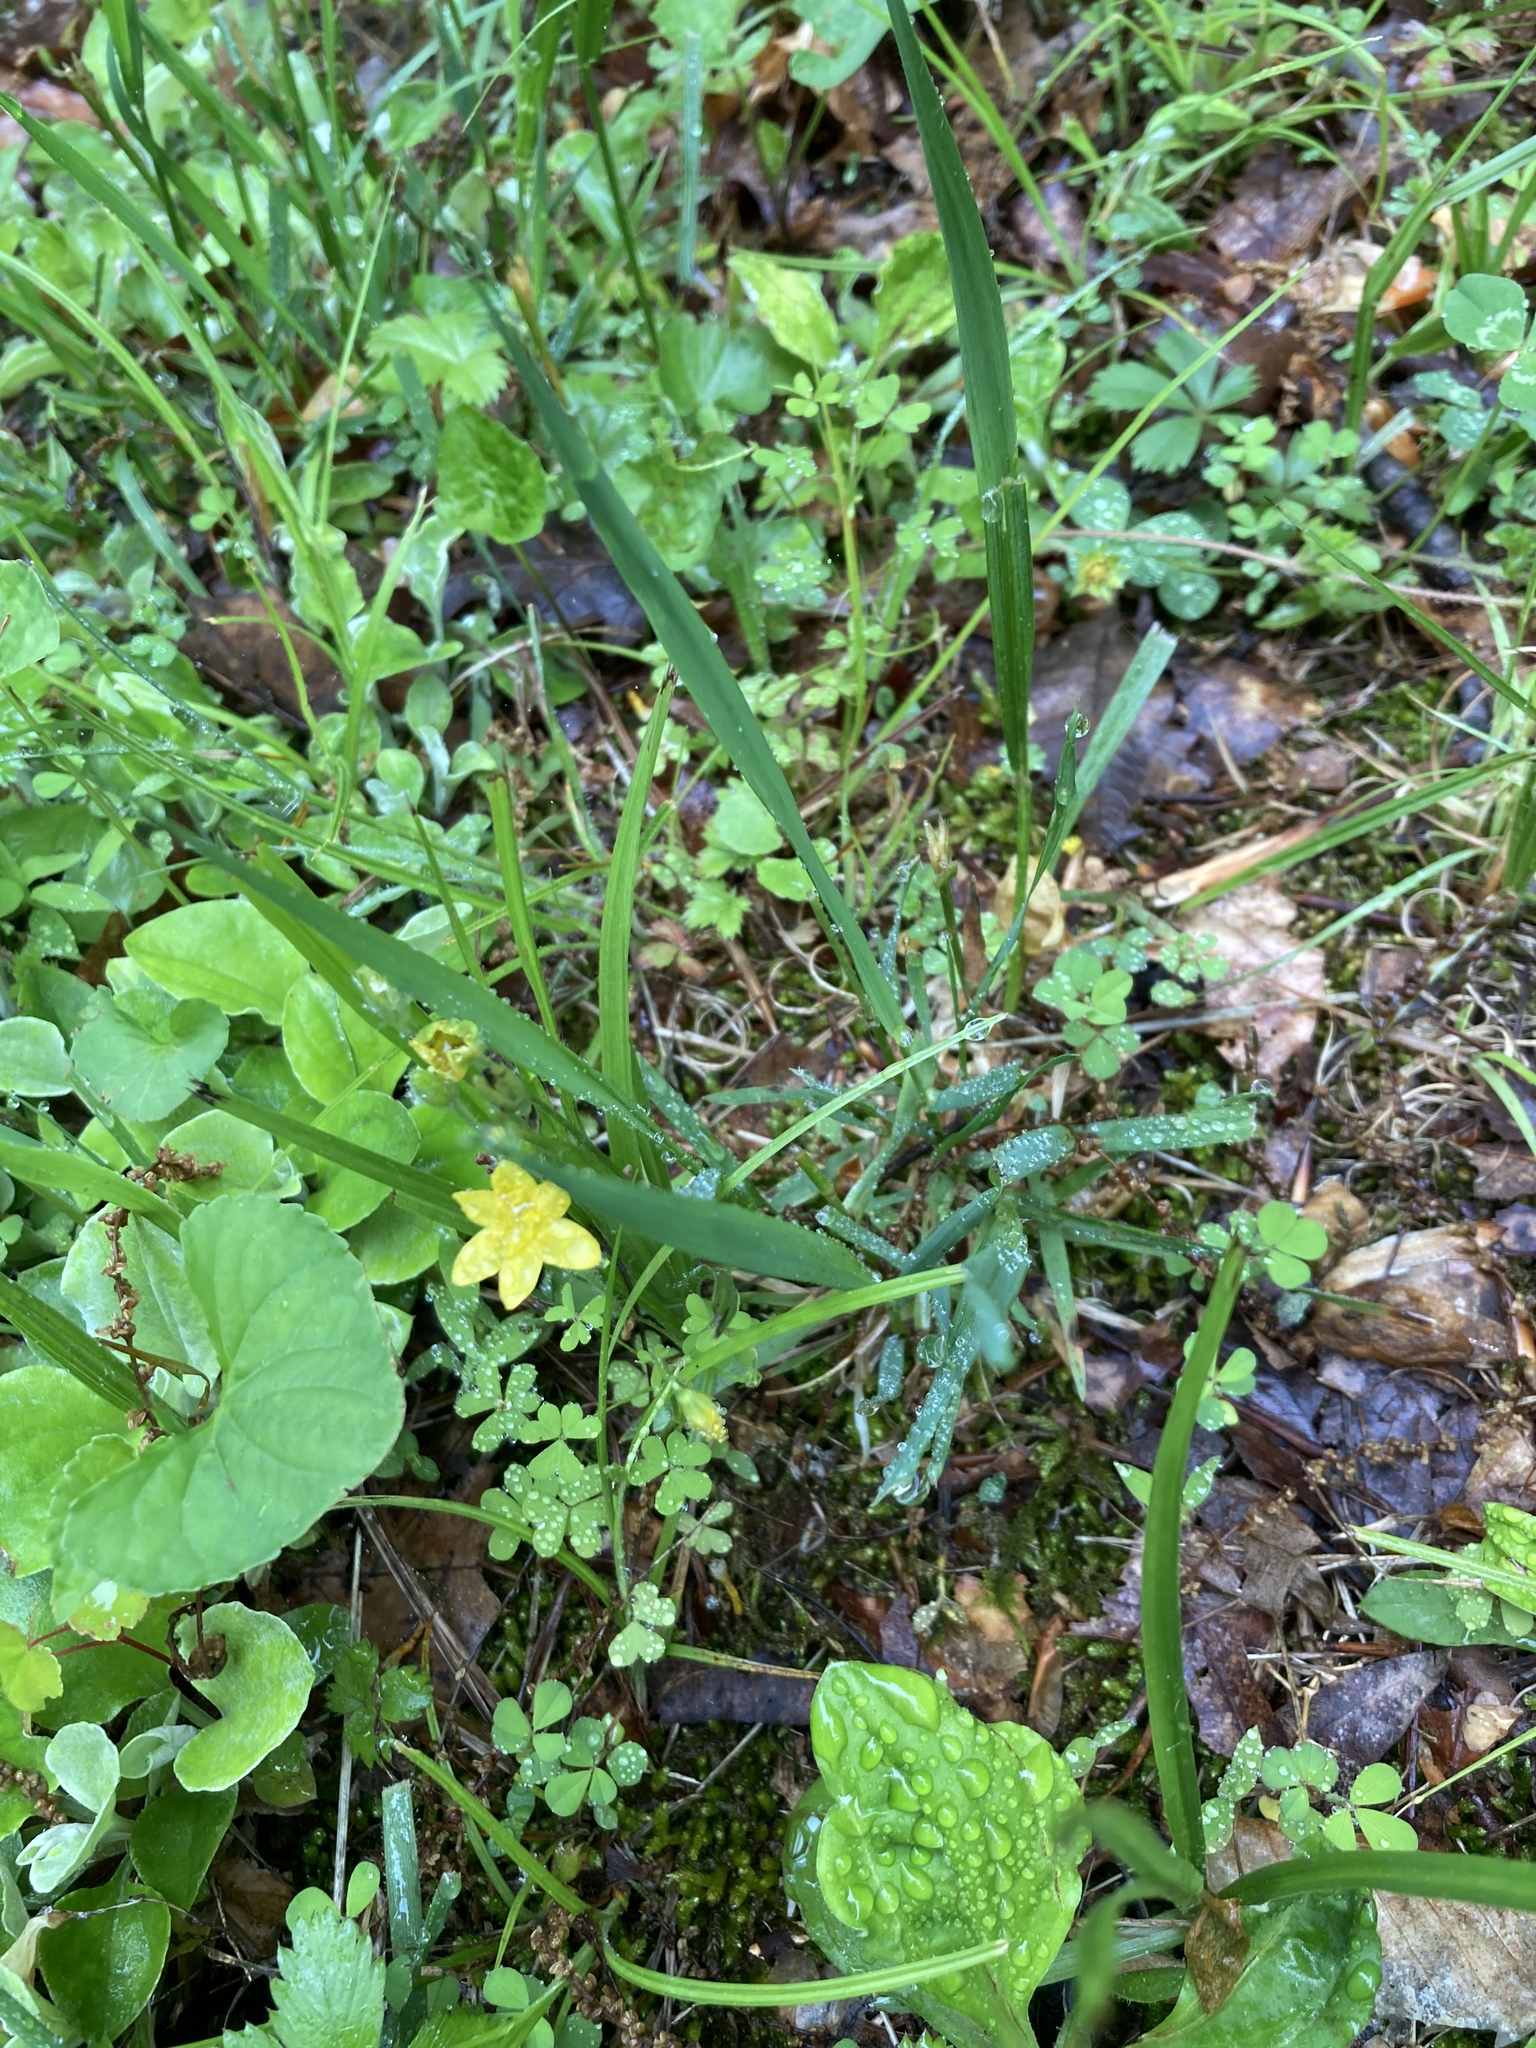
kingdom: Plantae
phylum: Tracheophyta
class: Liliopsida
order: Asparagales
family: Hypoxidaceae
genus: Hypoxis
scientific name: Hypoxis hirsuta
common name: Common goldstar
